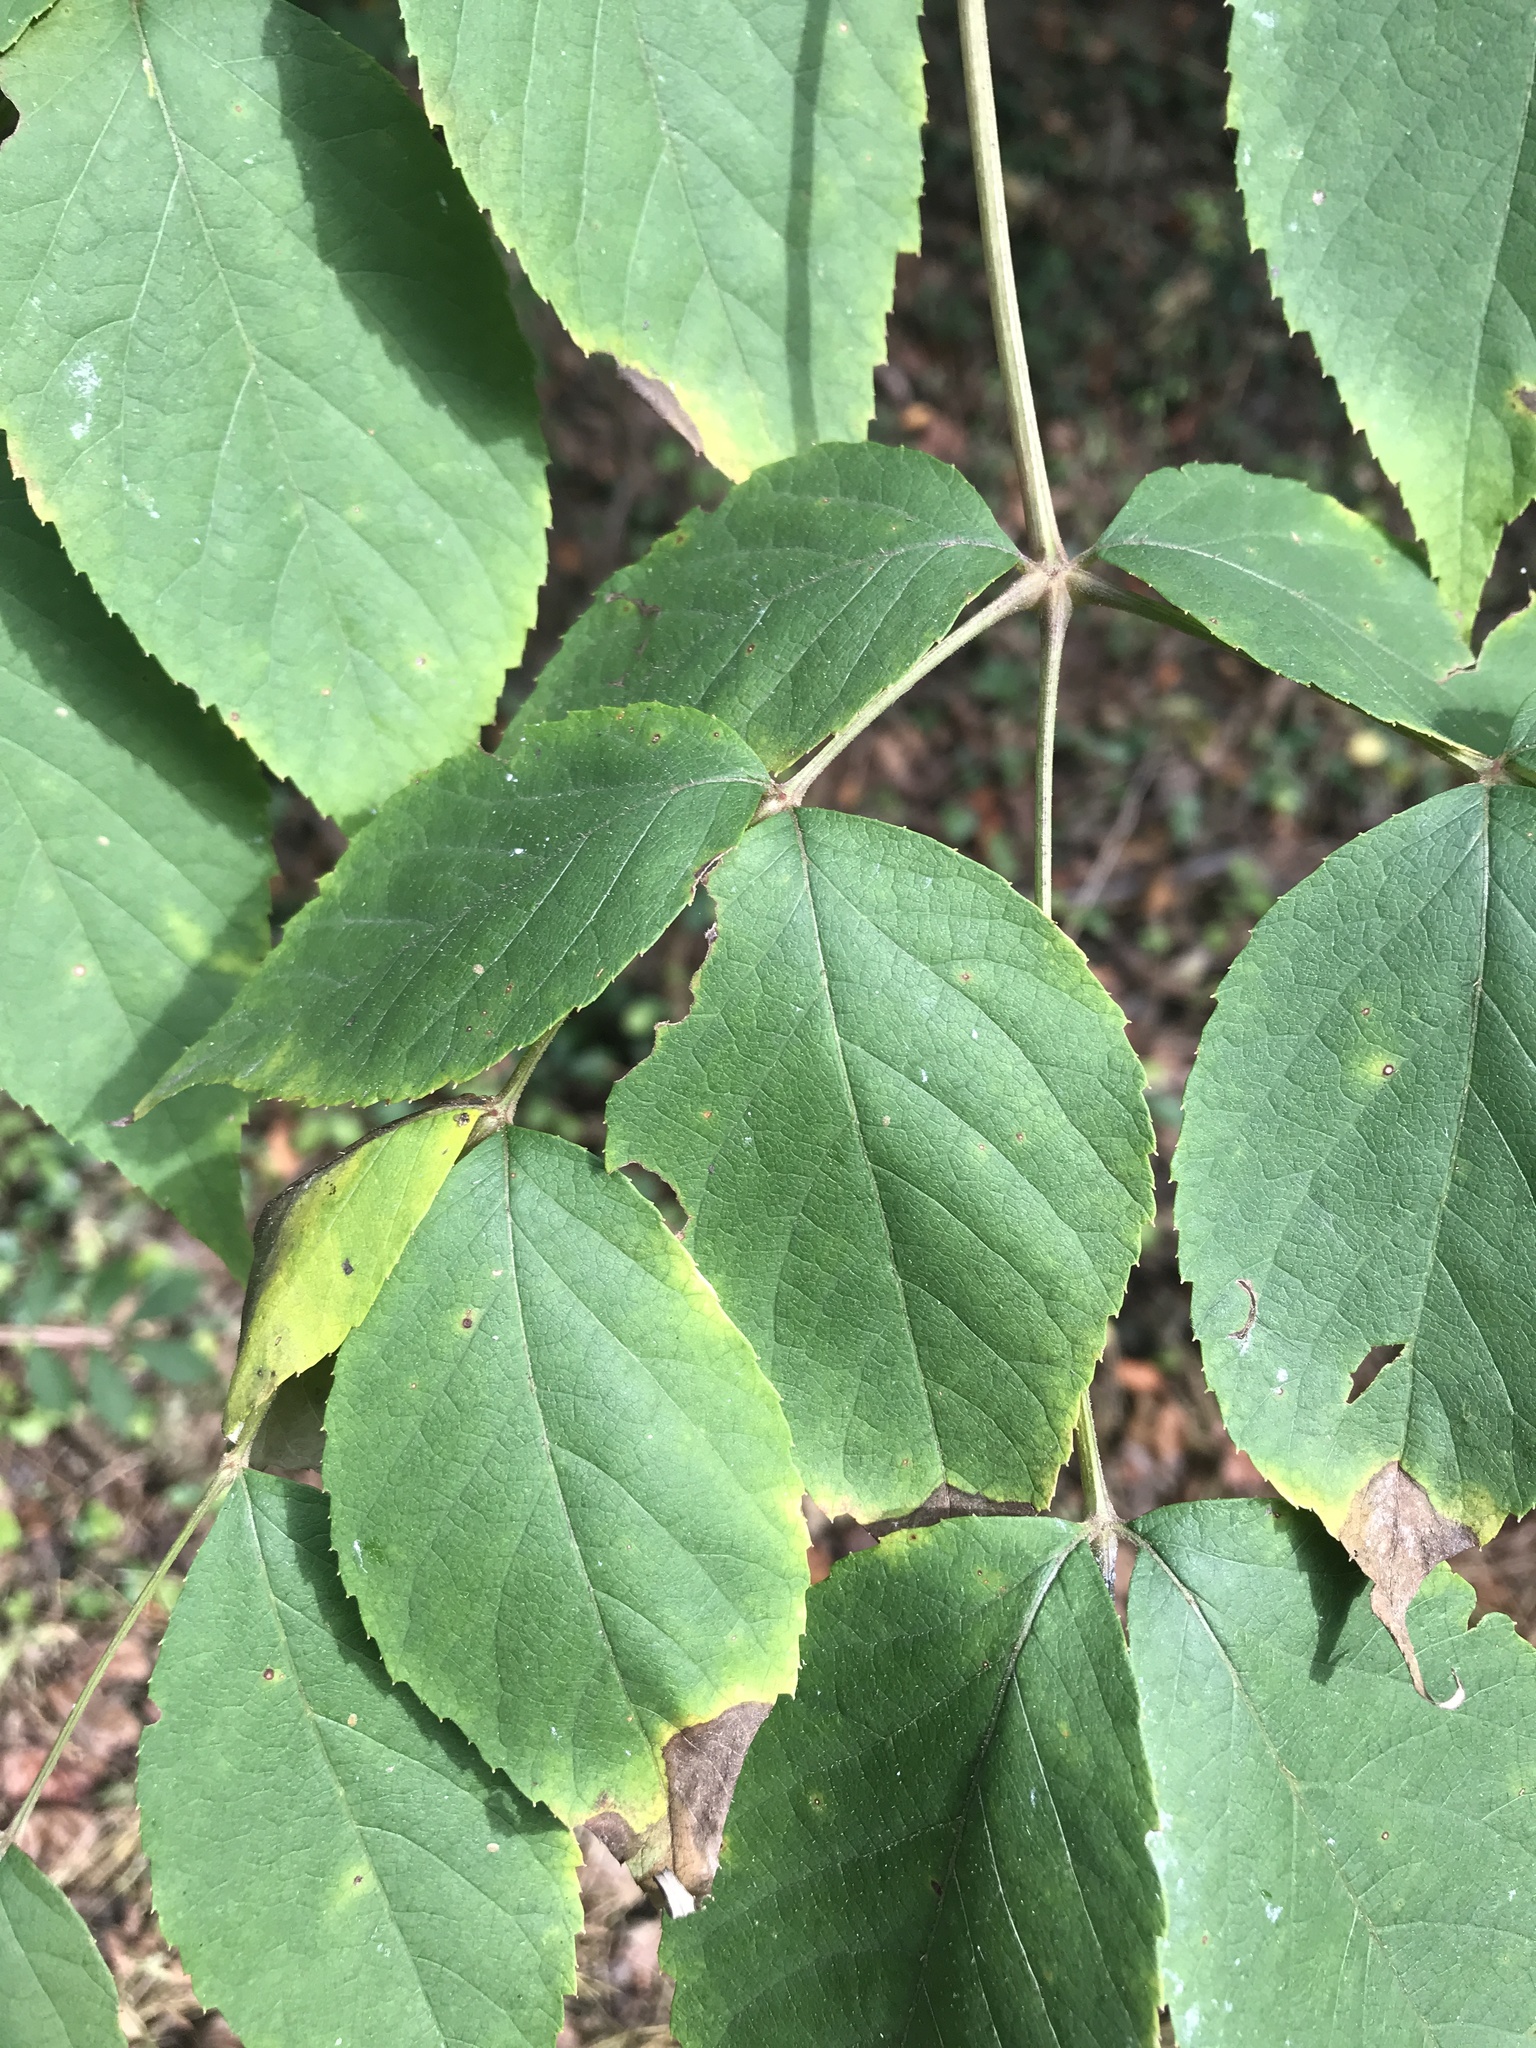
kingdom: Plantae
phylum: Tracheophyta
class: Magnoliopsida
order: Apiales
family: Araliaceae
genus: Aralia
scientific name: Aralia elata
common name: Japanese angelica-tree
